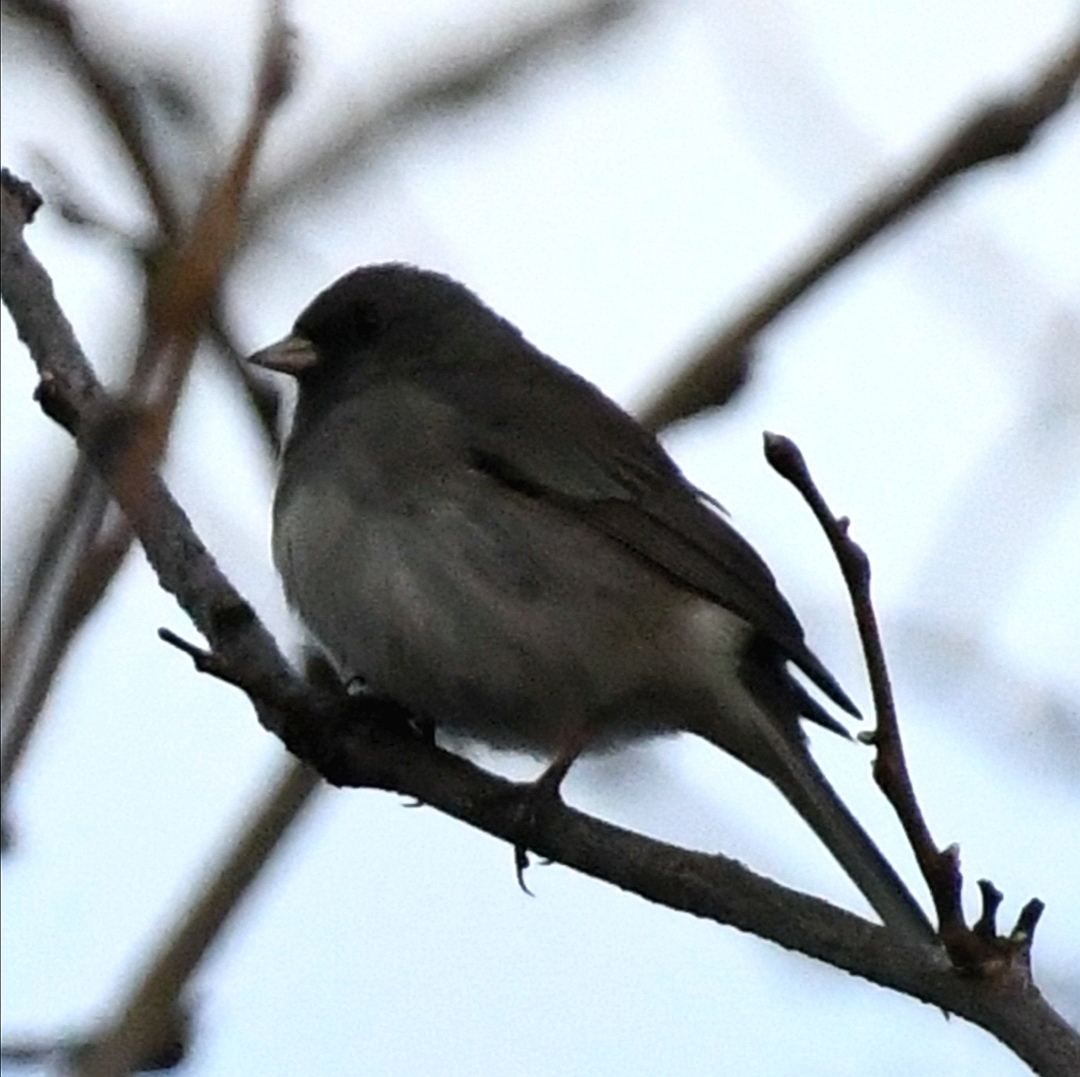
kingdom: Animalia
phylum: Chordata
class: Aves
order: Passeriformes
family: Passerellidae
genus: Junco
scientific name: Junco hyemalis
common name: Dark-eyed junco
